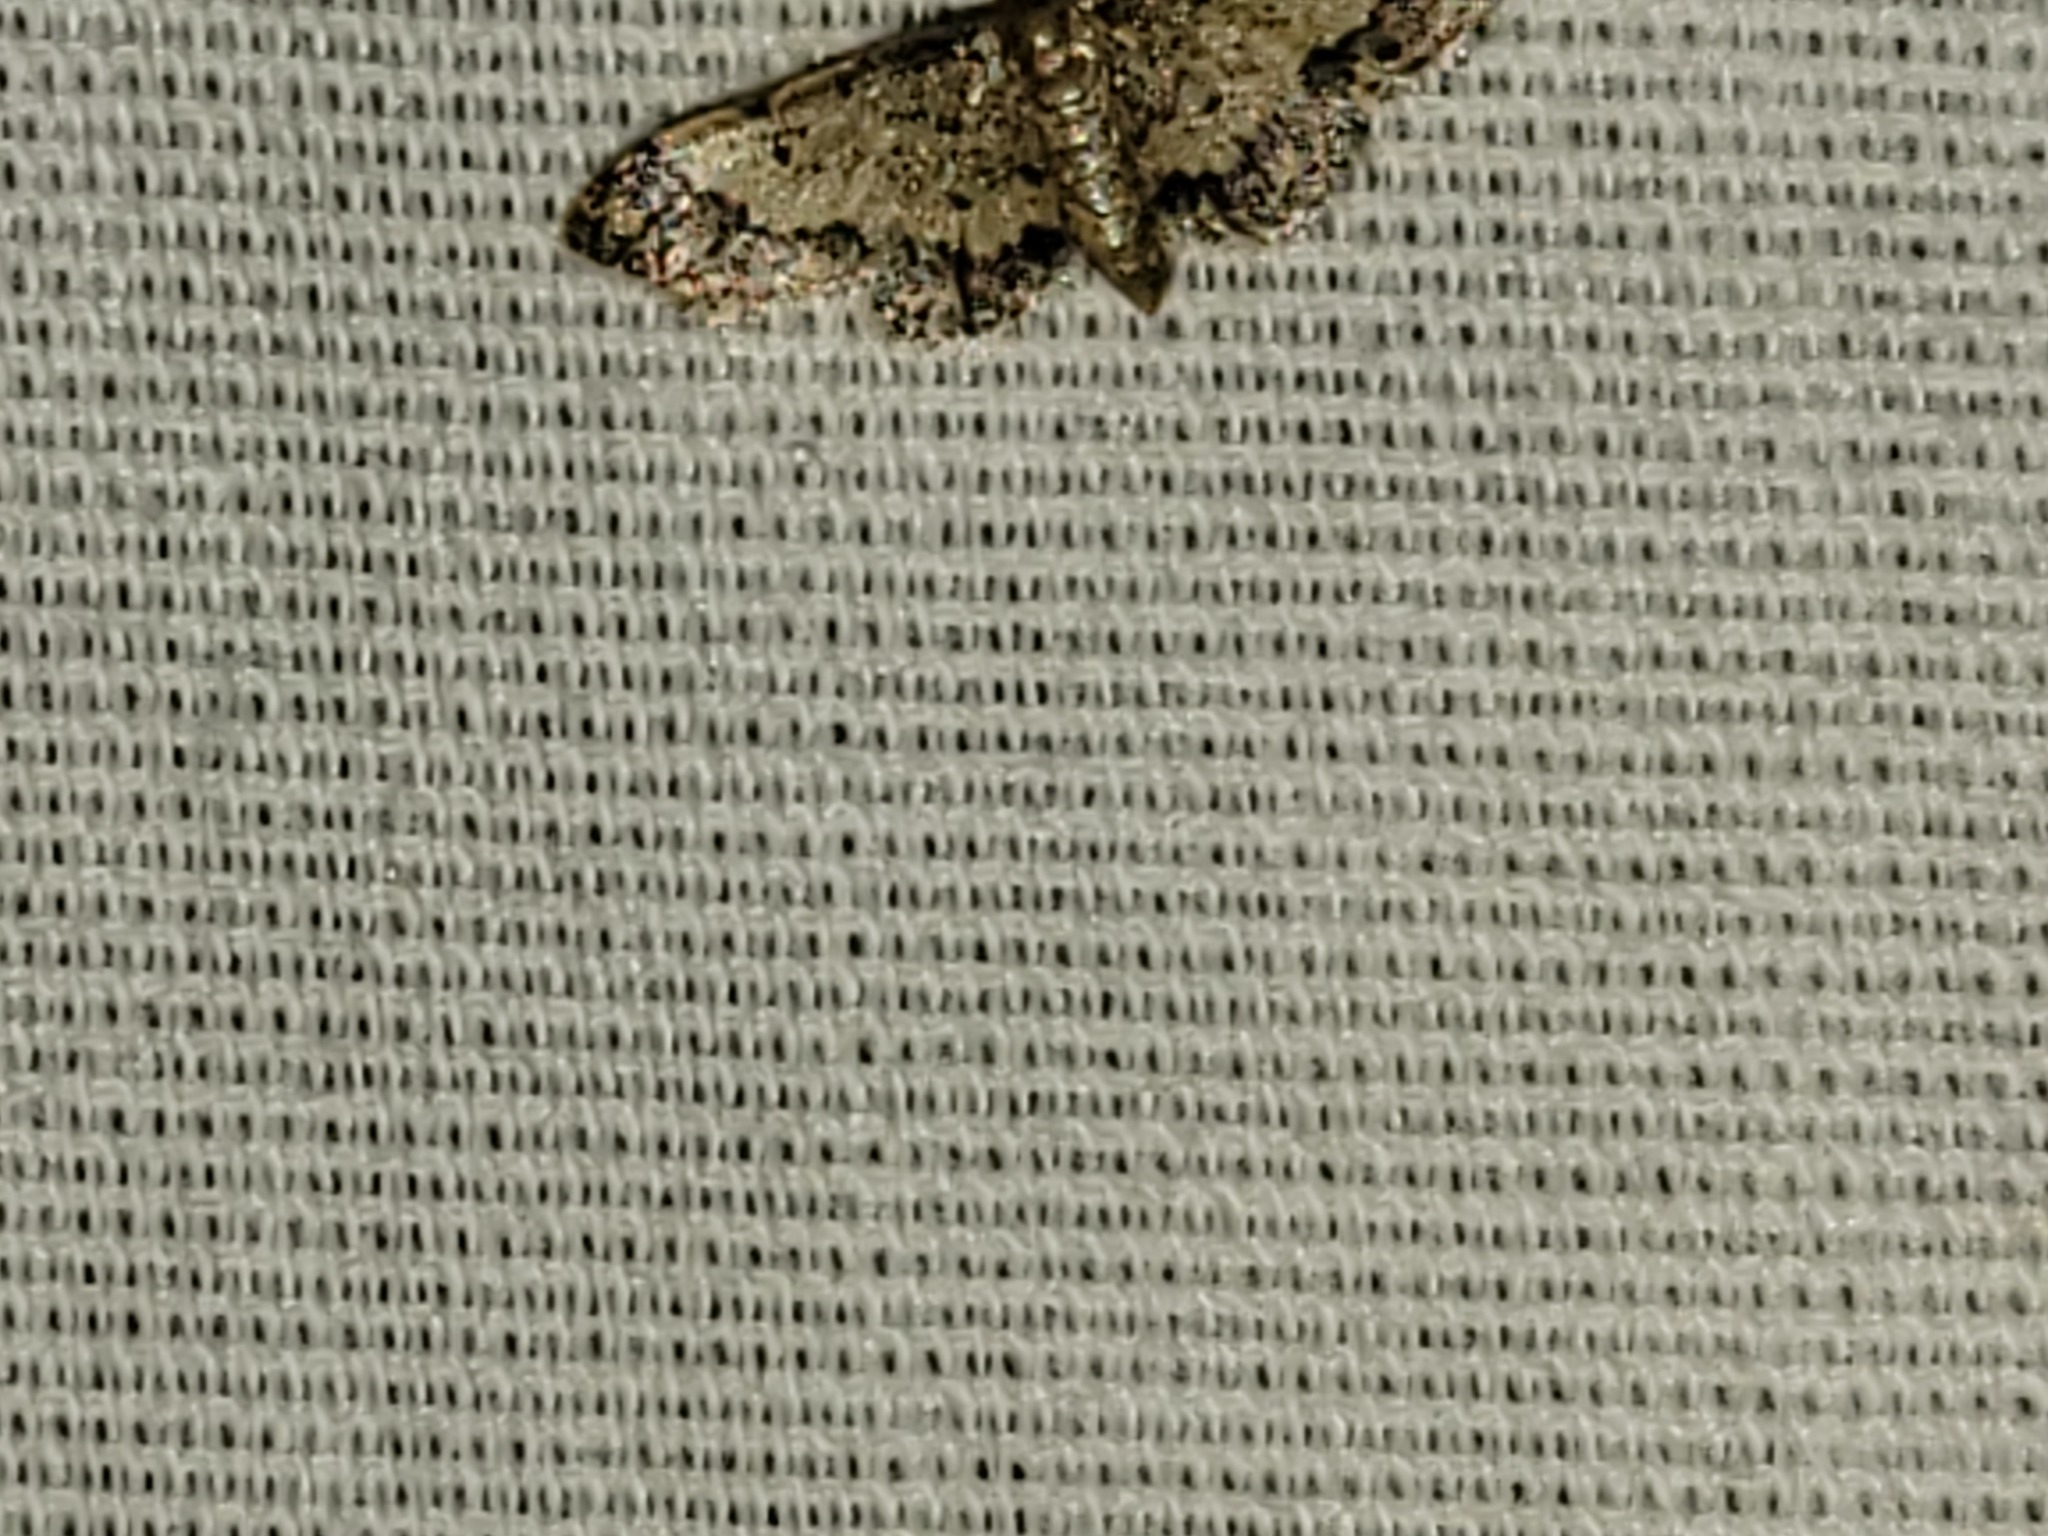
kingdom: Animalia
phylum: Arthropoda
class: Insecta
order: Lepidoptera
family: Geometridae
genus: Idaea
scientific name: Idaea celtima
